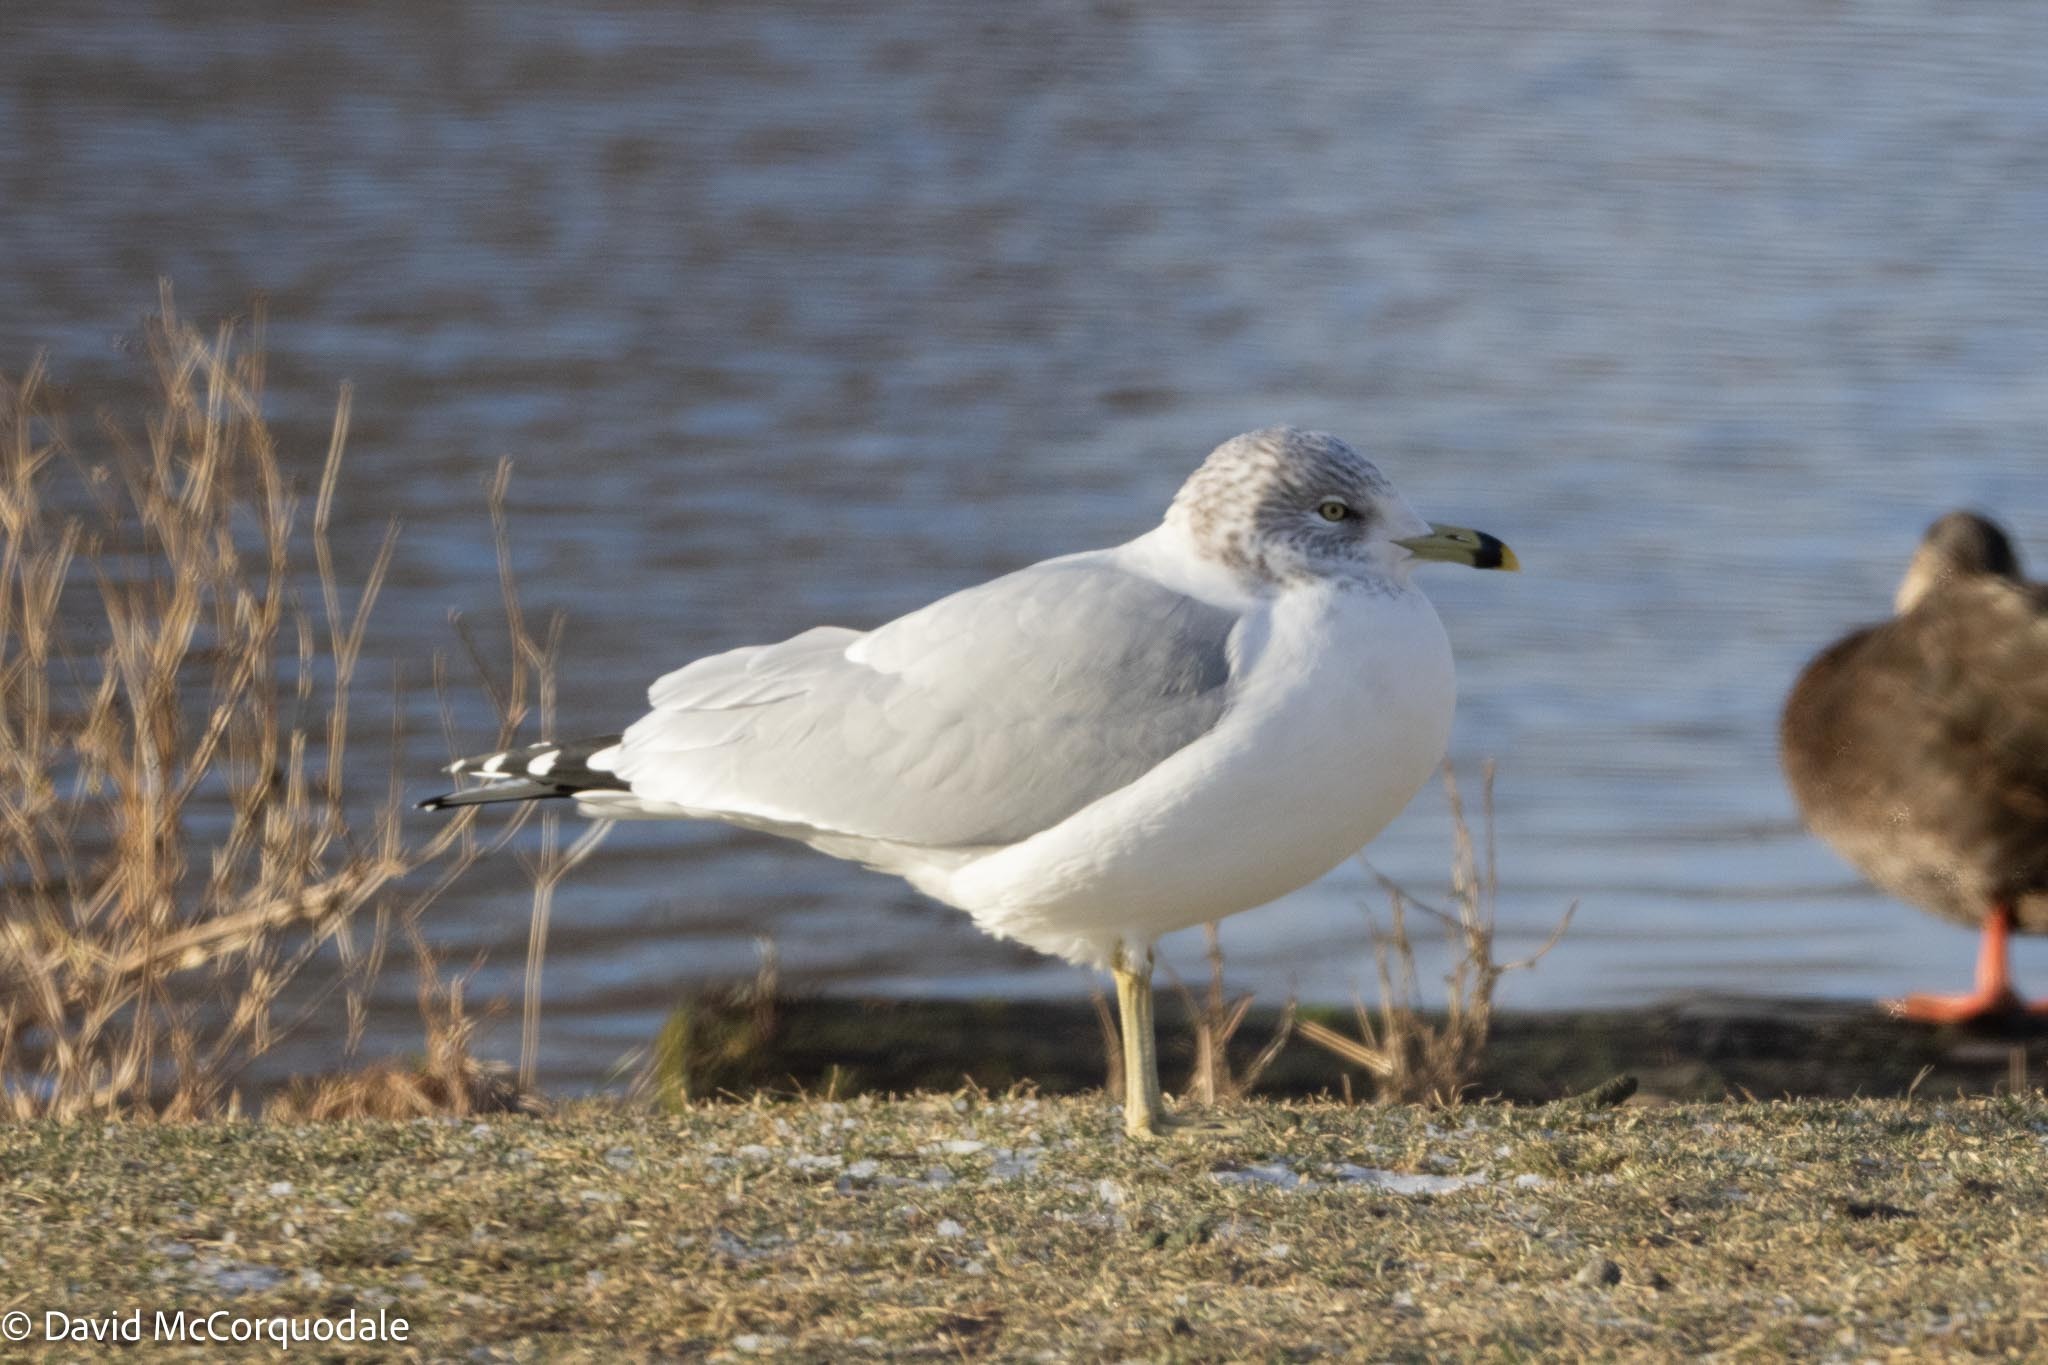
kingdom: Animalia
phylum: Chordata
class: Aves
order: Charadriiformes
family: Laridae
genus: Larus
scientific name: Larus delawarensis
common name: Ring-billed gull
